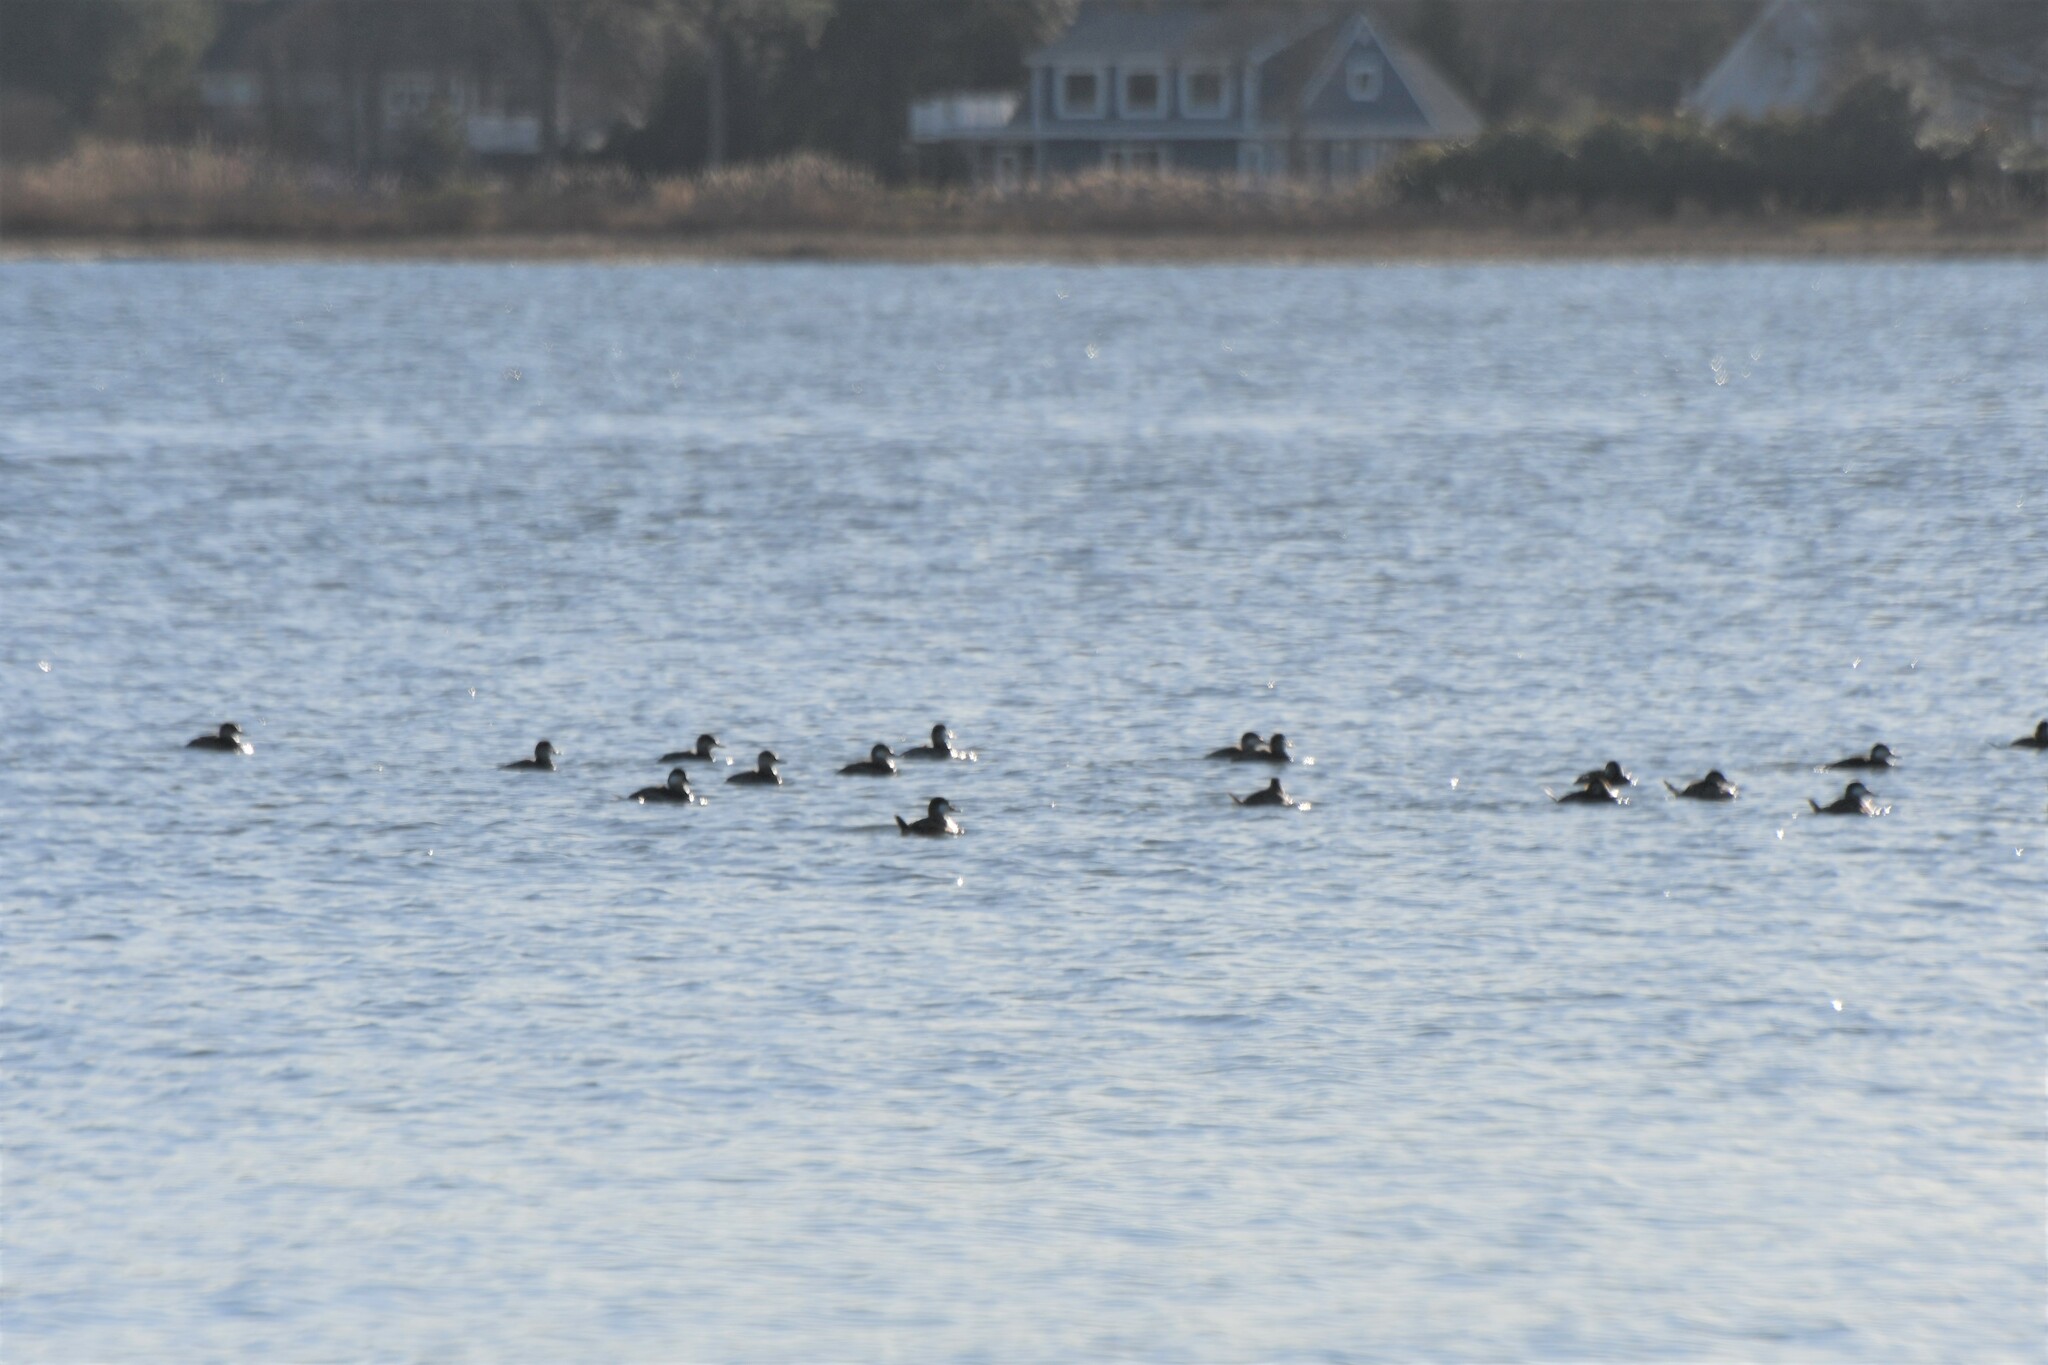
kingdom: Animalia
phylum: Chordata
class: Aves
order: Anseriformes
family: Anatidae
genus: Oxyura
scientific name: Oxyura jamaicensis
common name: Ruddy duck
